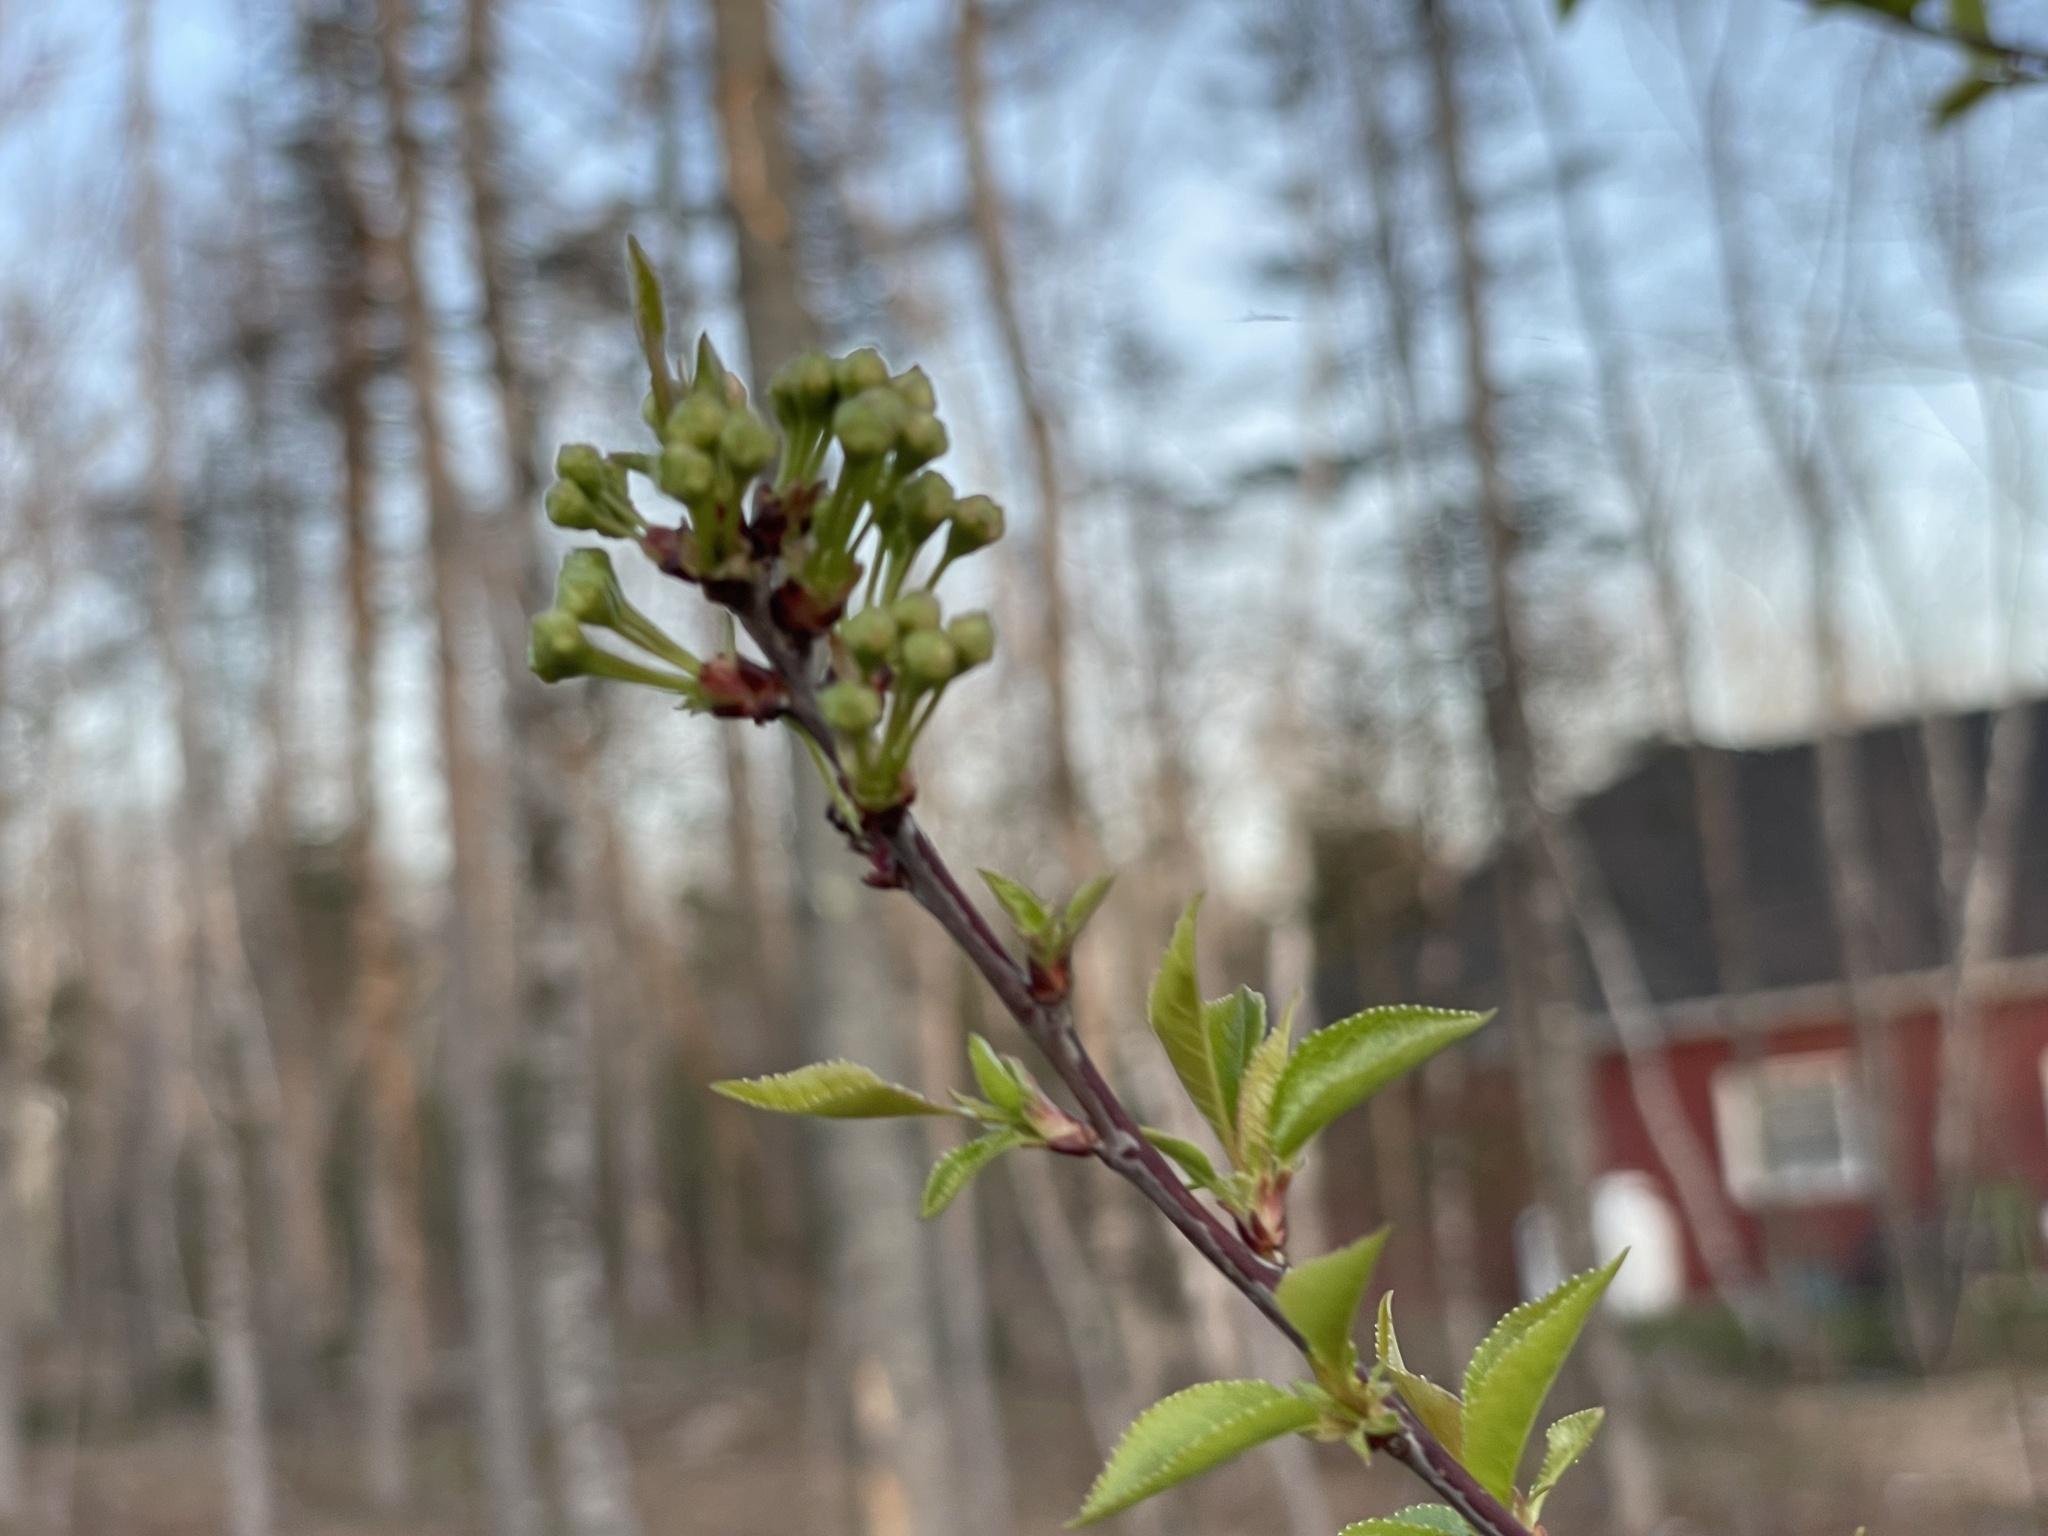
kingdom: Plantae
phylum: Tracheophyta
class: Magnoliopsida
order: Rosales
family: Rosaceae
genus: Prunus
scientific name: Prunus pensylvanica
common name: Pin cherry
